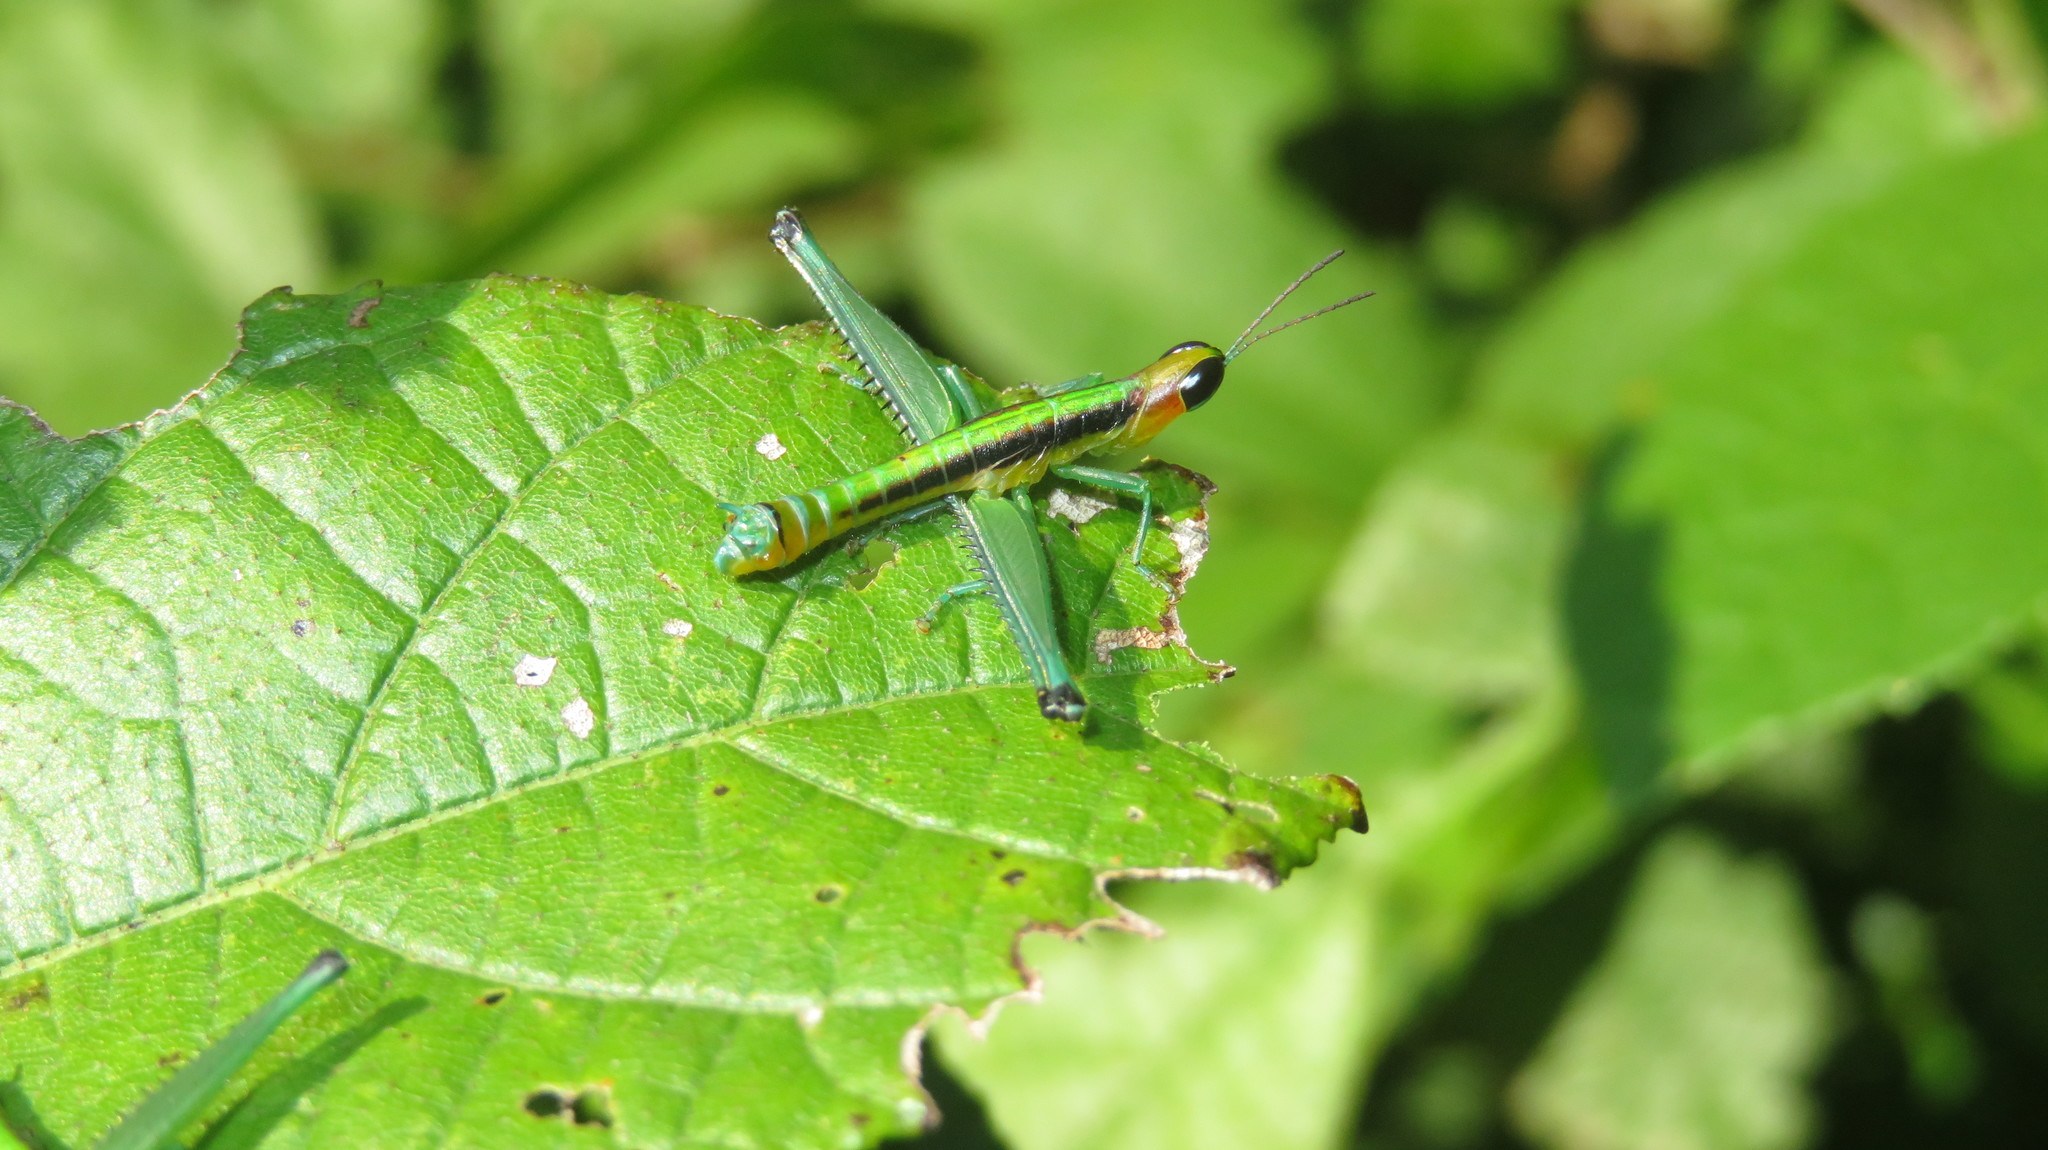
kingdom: Animalia
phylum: Arthropoda
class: Insecta
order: Orthoptera
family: Euschmidtiidae
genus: Stenoschmidtia
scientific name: Stenoschmidtia taurus
